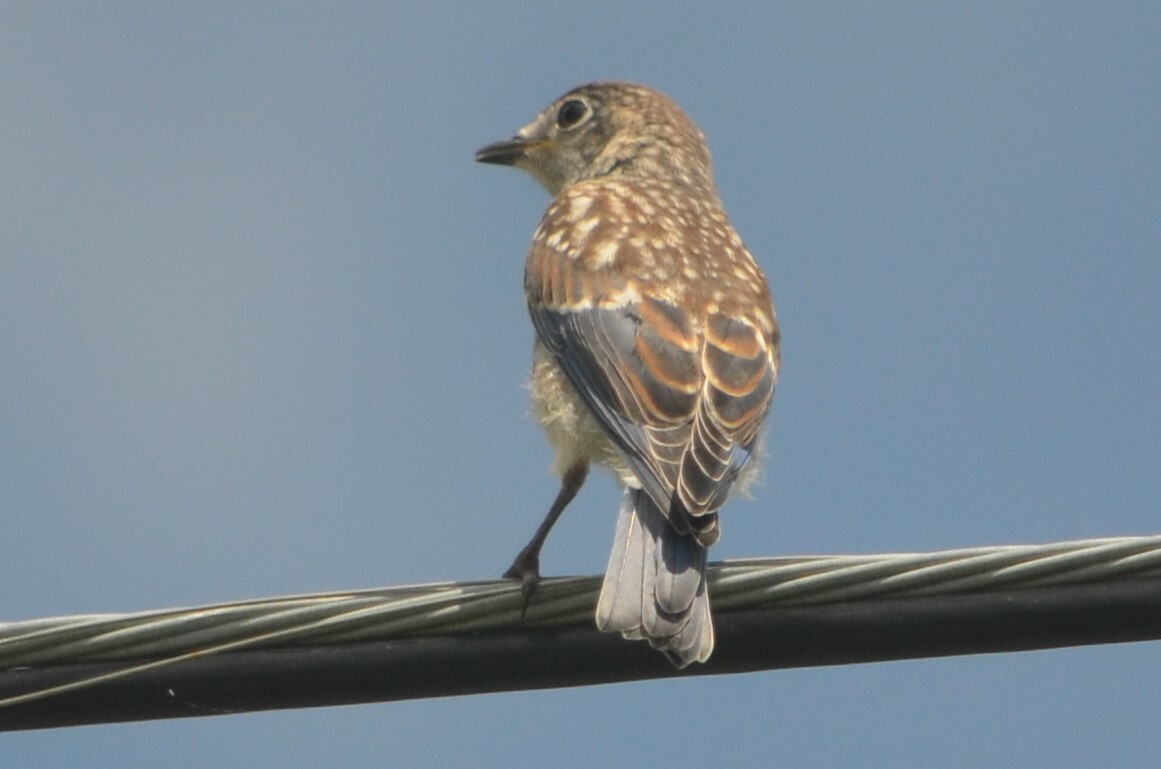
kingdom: Animalia
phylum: Chordata
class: Aves
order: Passeriformes
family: Turdidae
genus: Sialia
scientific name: Sialia sialis
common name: Eastern bluebird
